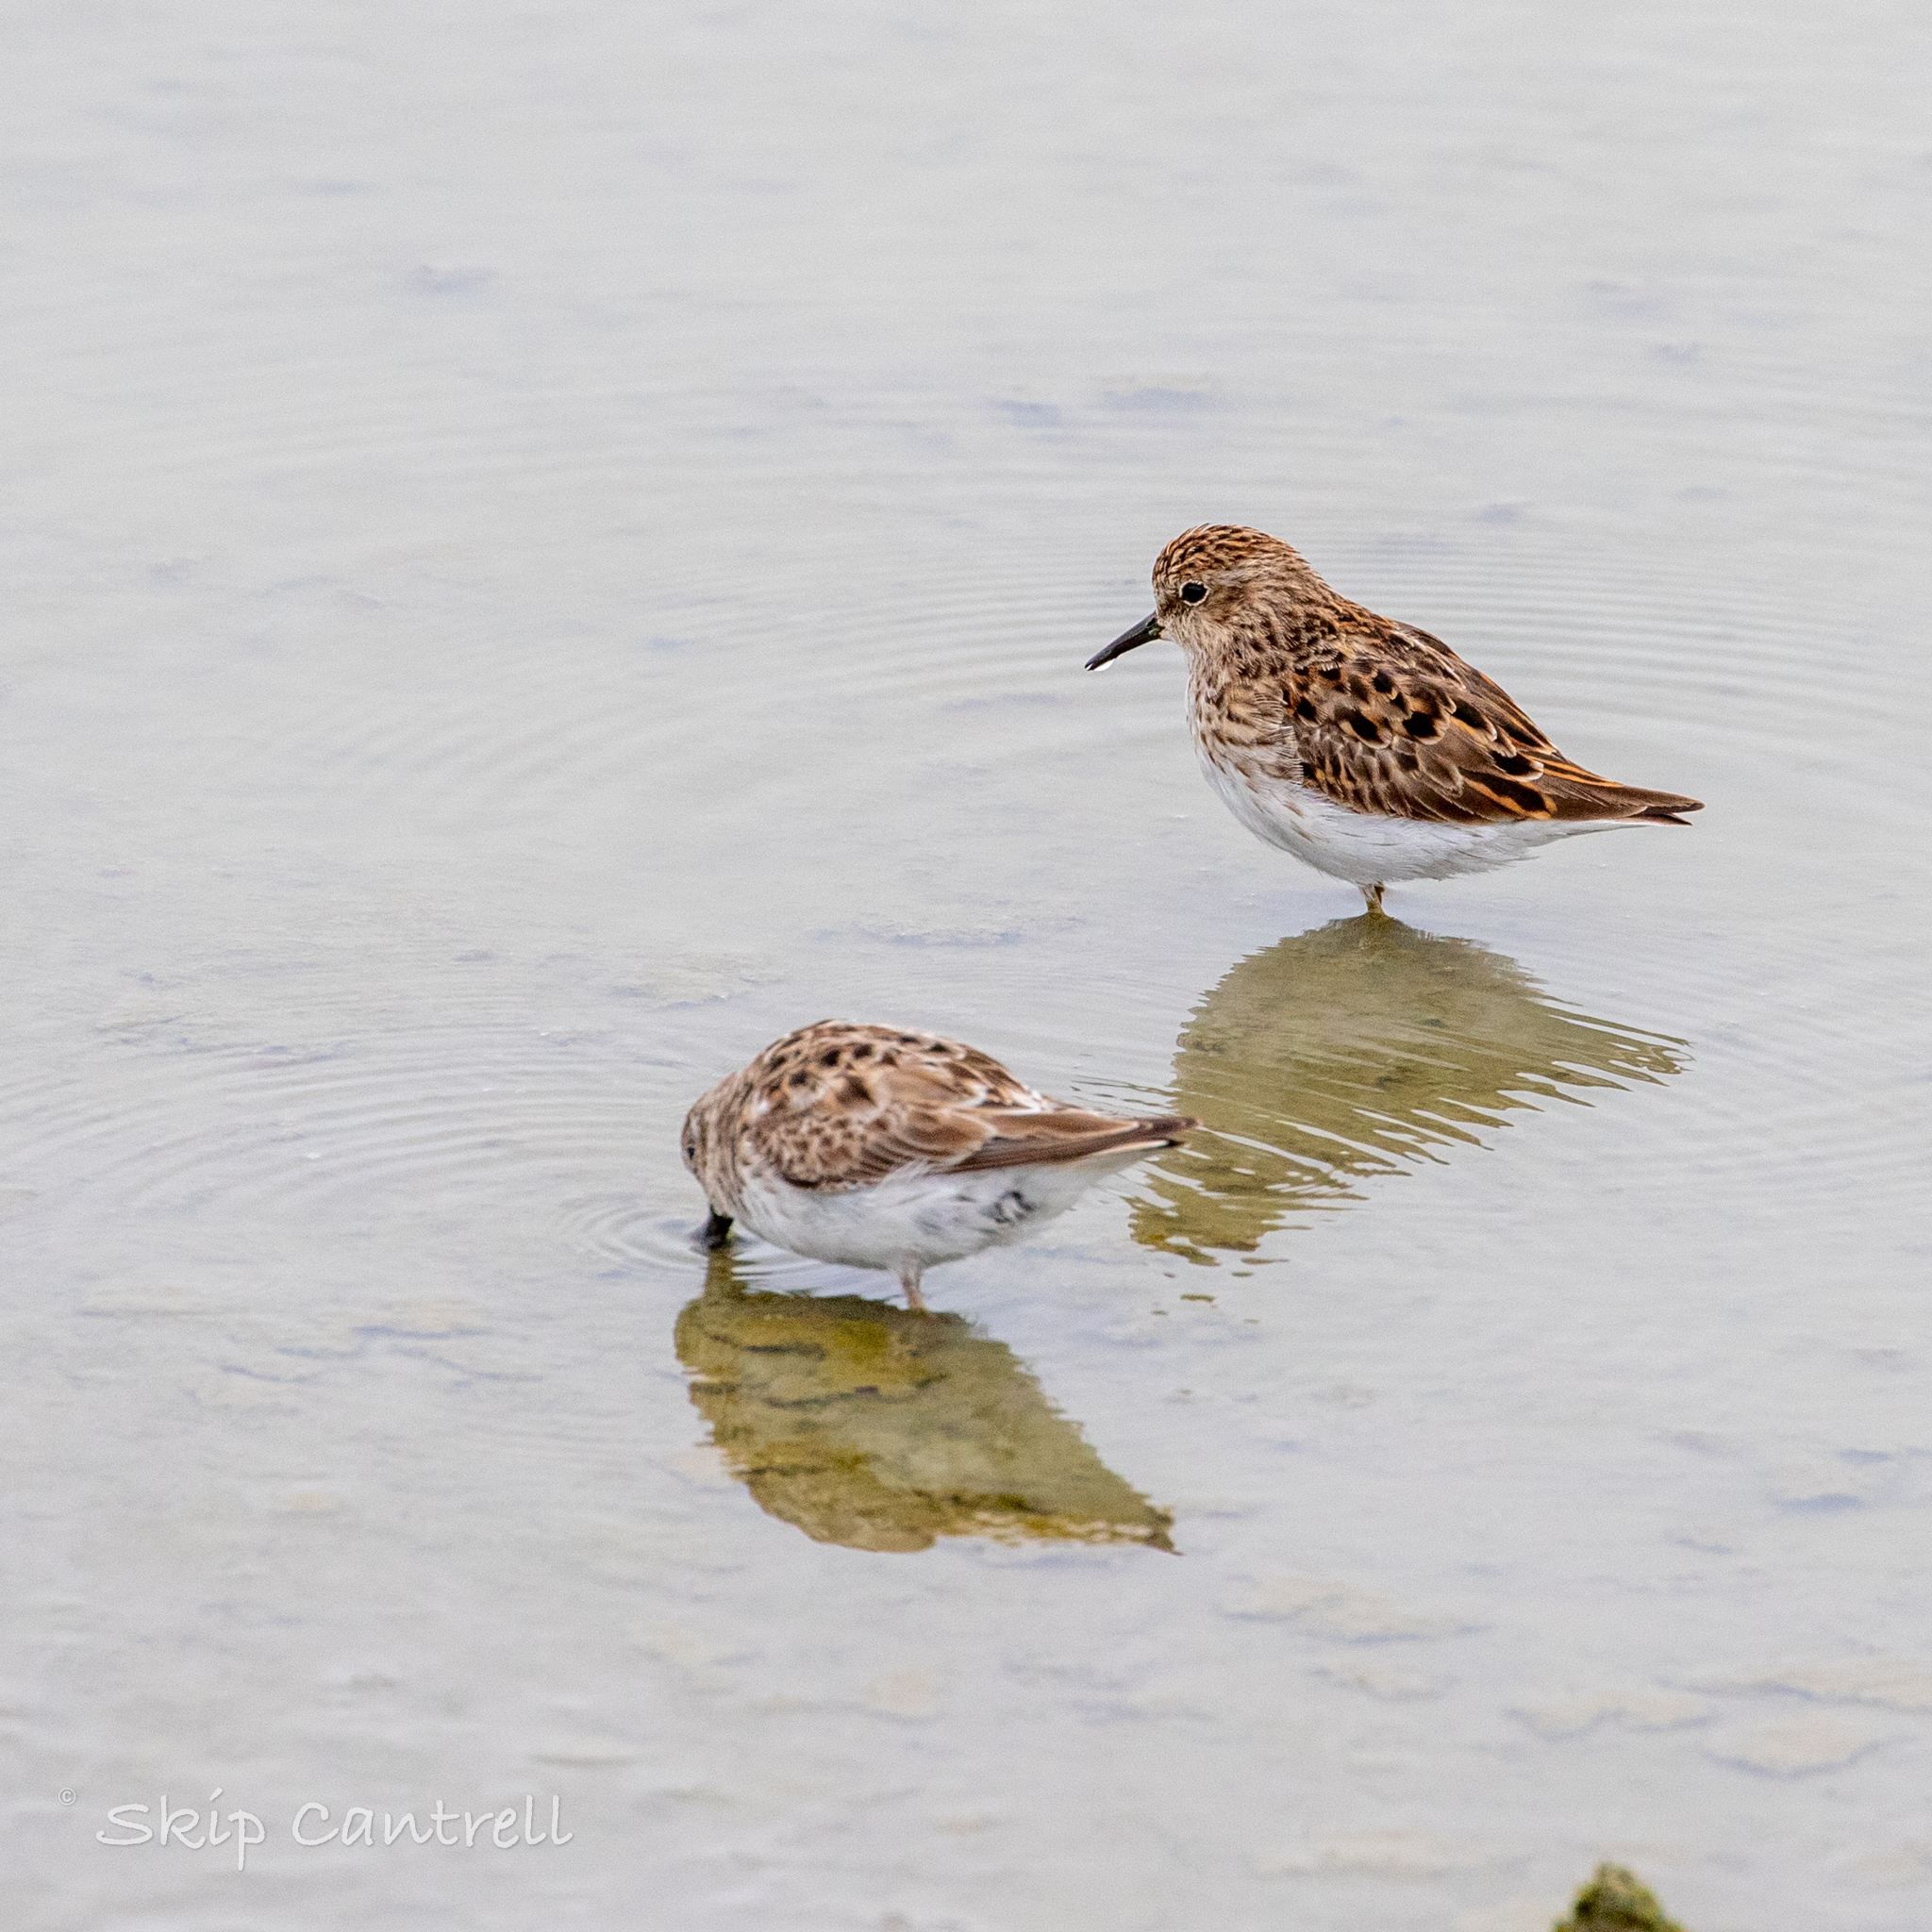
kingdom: Animalia
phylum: Chordata
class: Aves
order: Charadriiformes
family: Scolopacidae
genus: Calidris
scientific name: Calidris minutilla
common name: Least sandpiper
